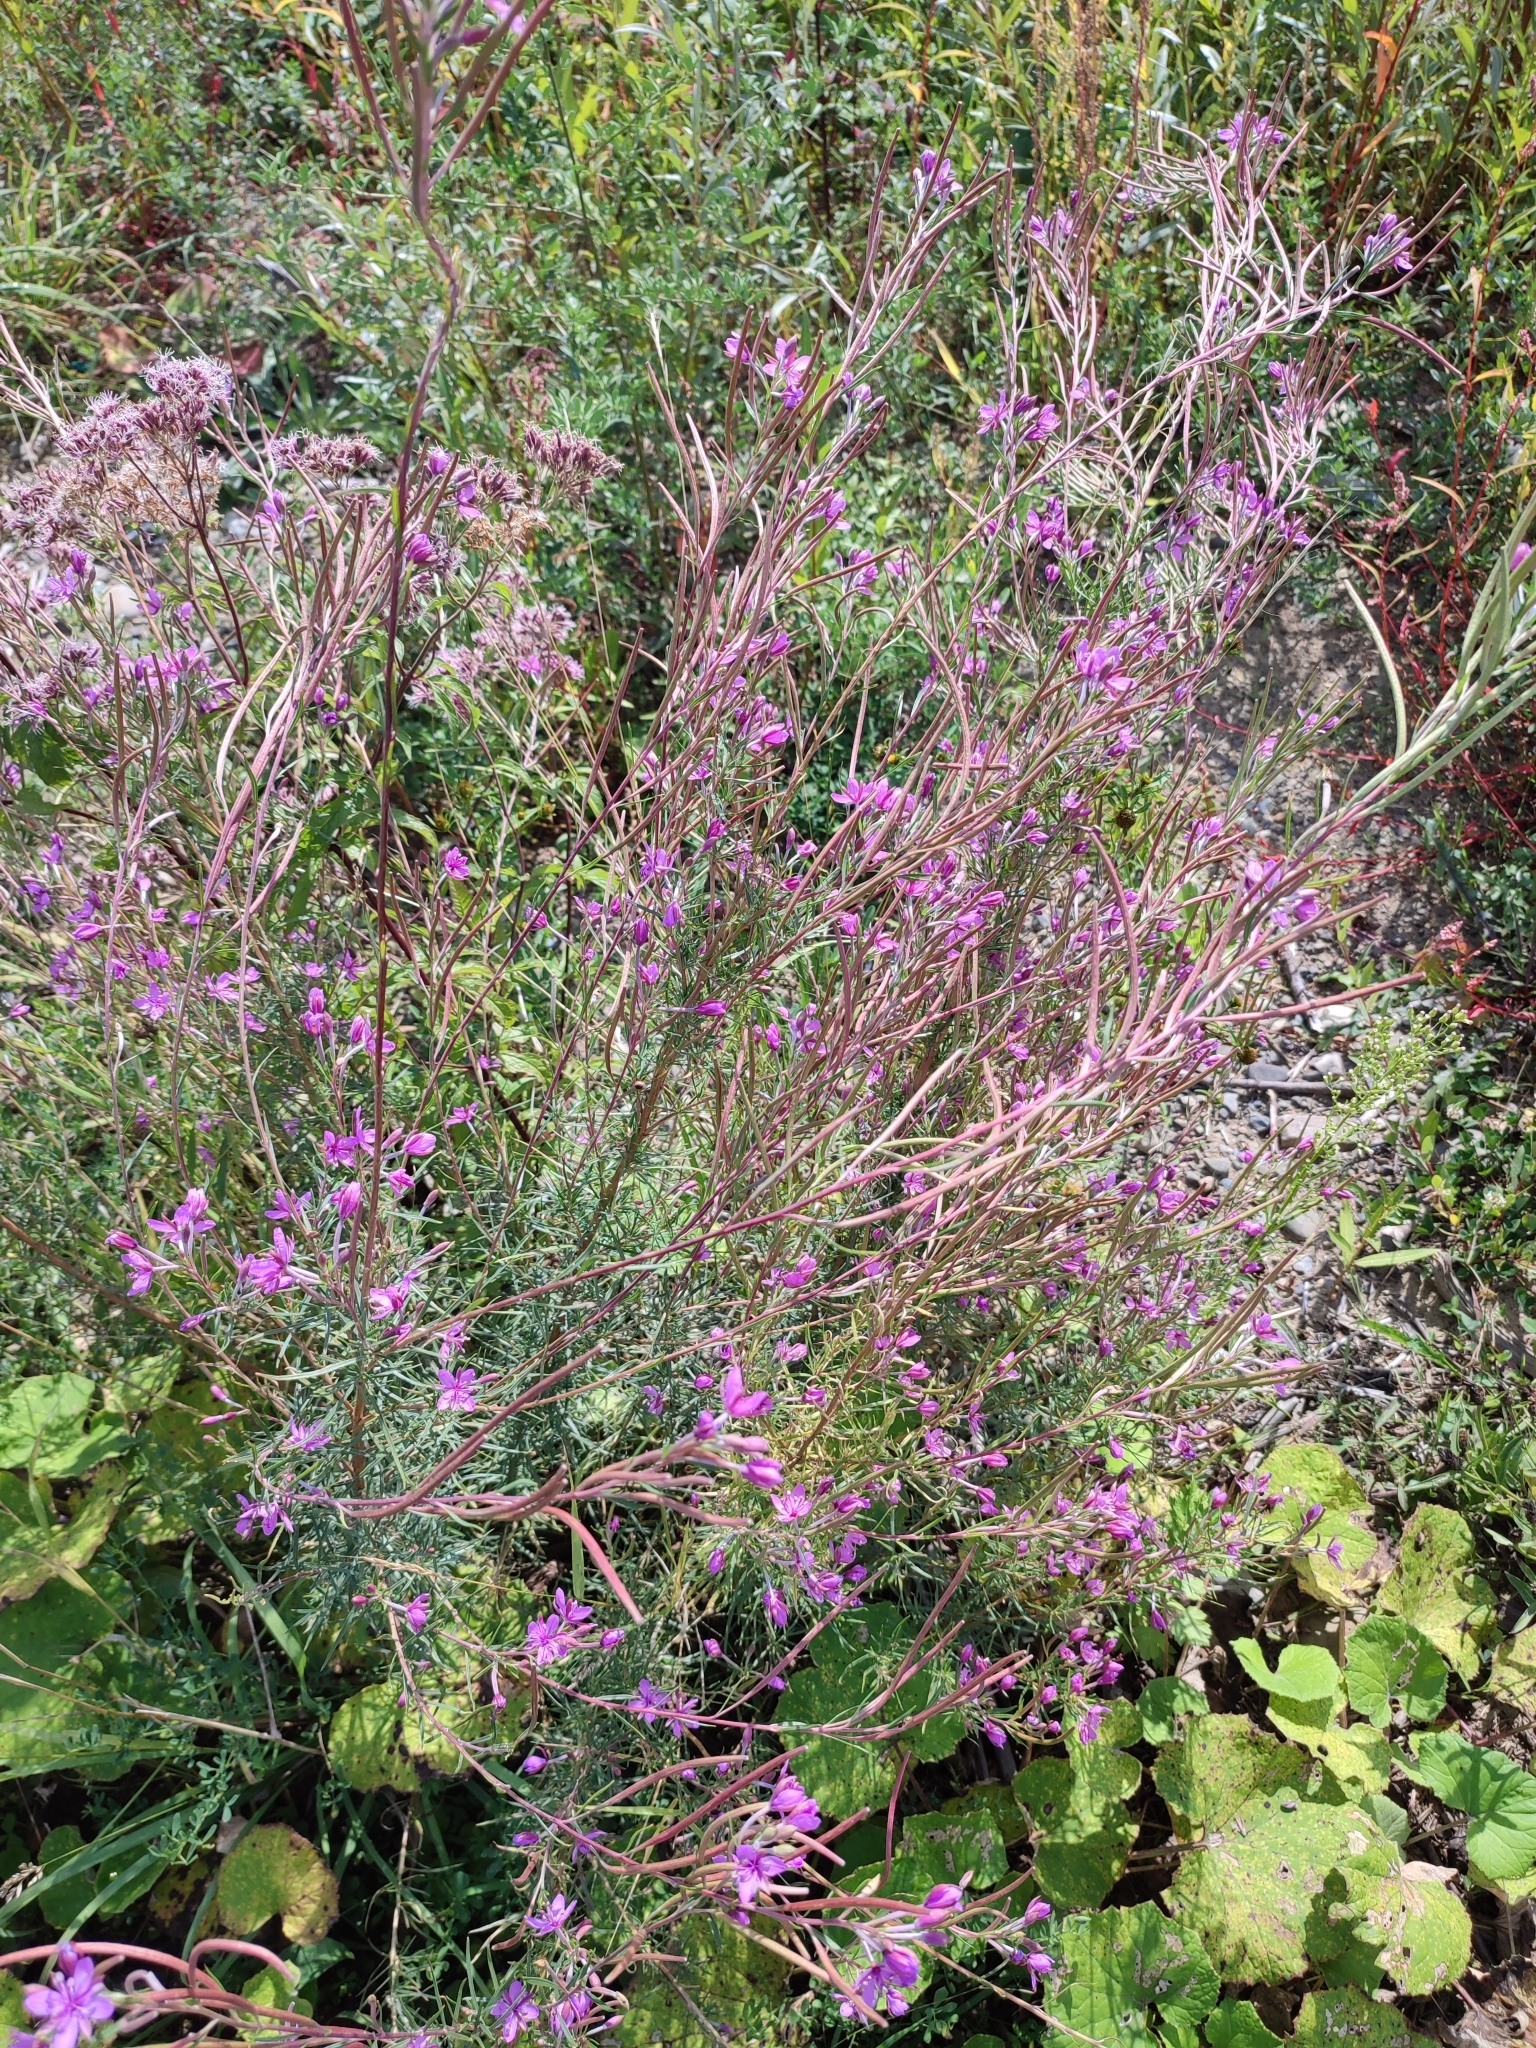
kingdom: Plantae
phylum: Tracheophyta
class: Magnoliopsida
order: Myrtales
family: Onagraceae
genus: Chamaenerion
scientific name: Chamaenerion dodonaei
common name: Rosemary-leaved willowherb
